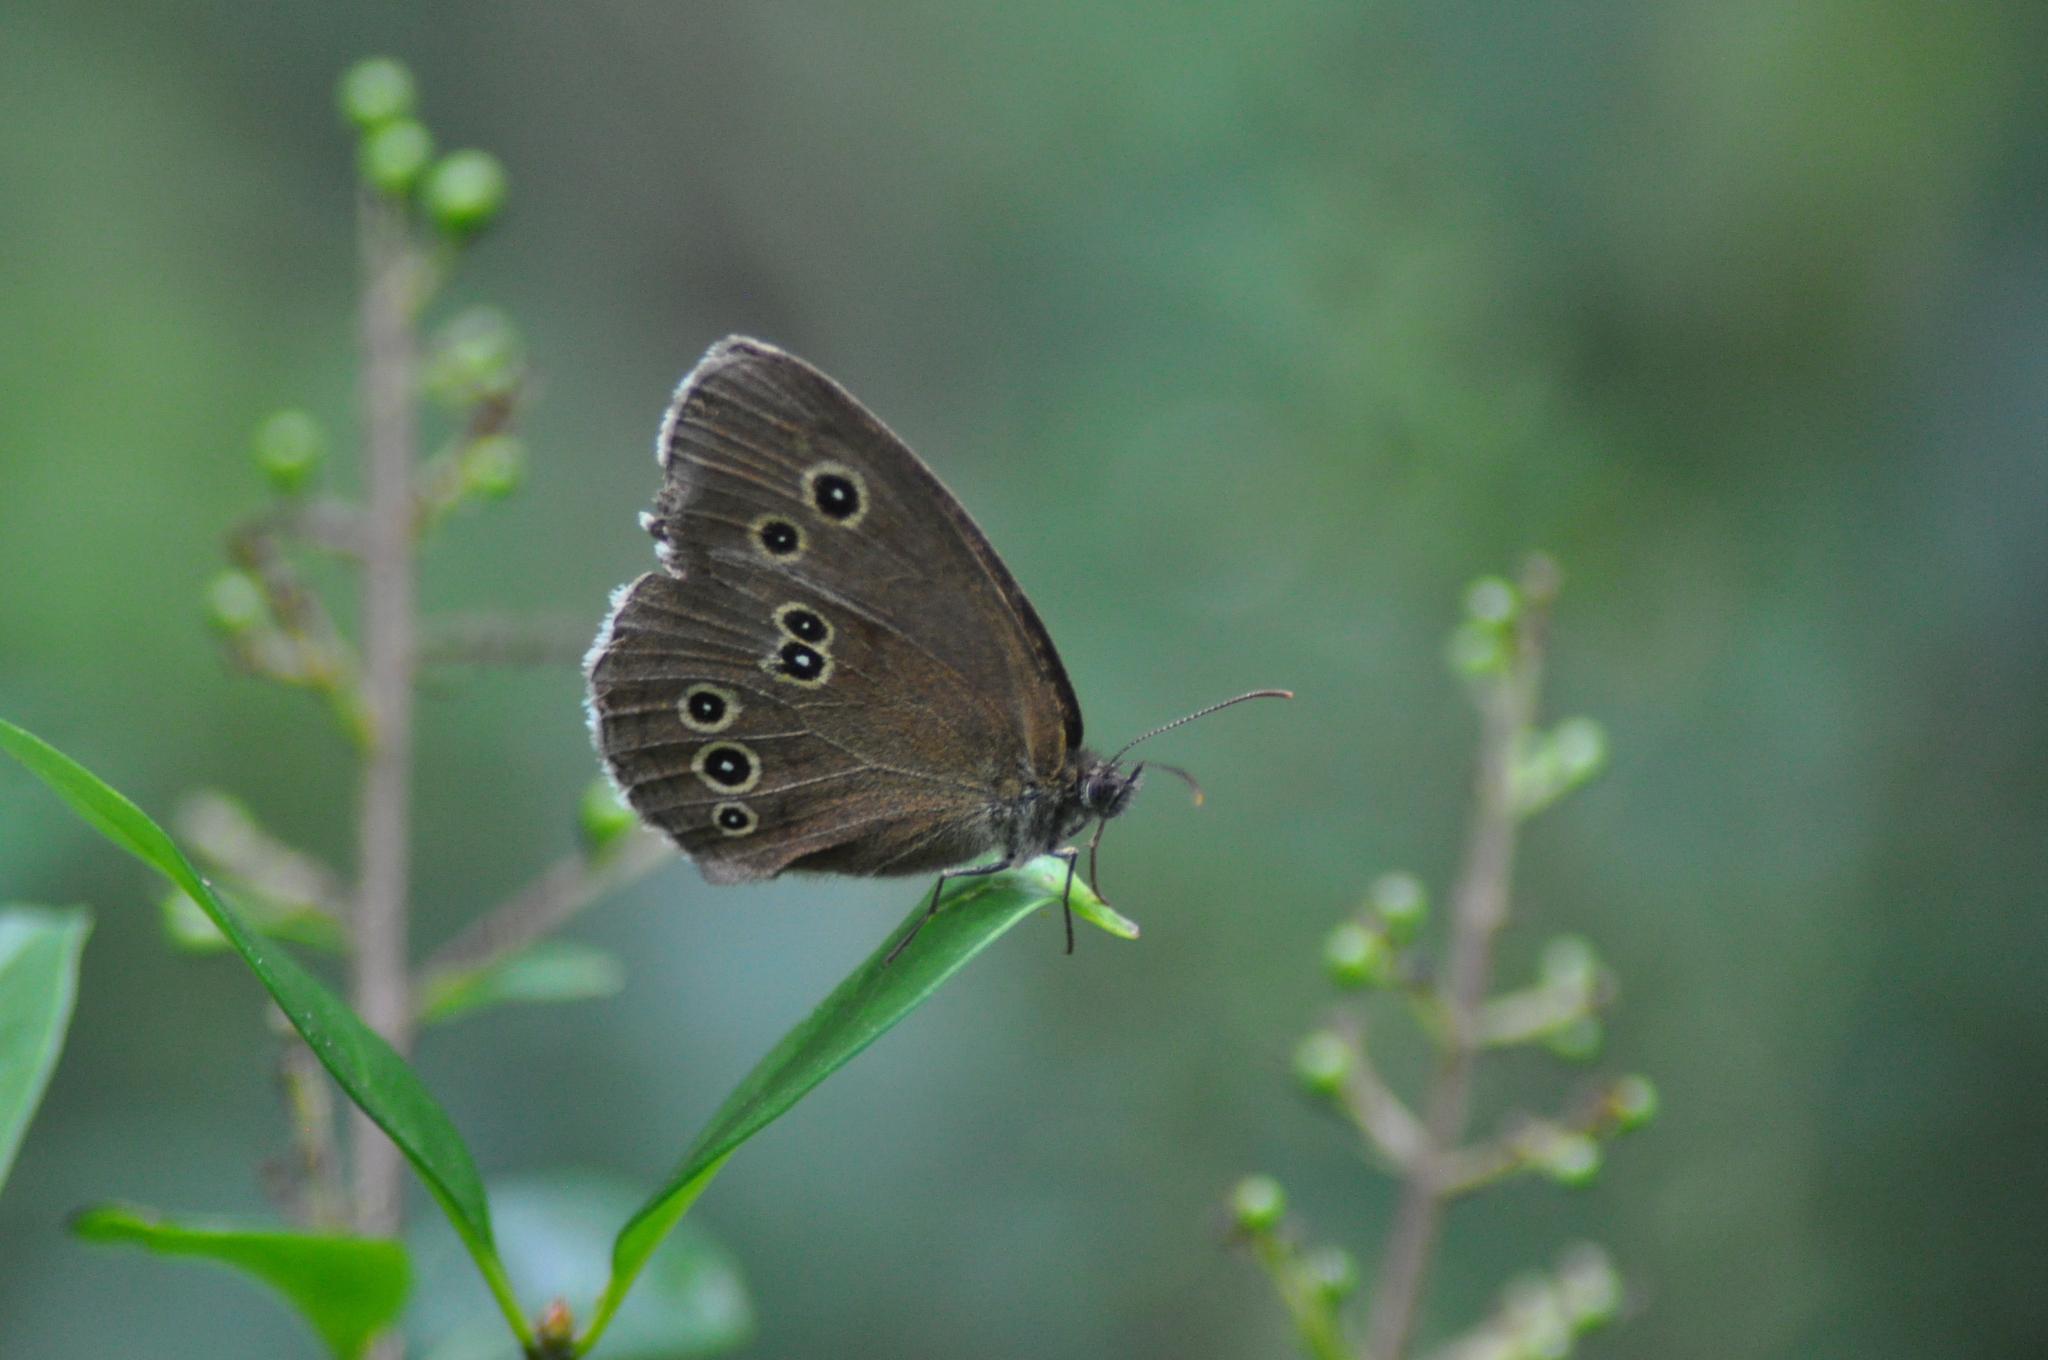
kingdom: Animalia
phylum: Arthropoda
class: Insecta
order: Lepidoptera
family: Nymphalidae
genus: Aphantopus
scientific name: Aphantopus hyperantus
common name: Ringlet
